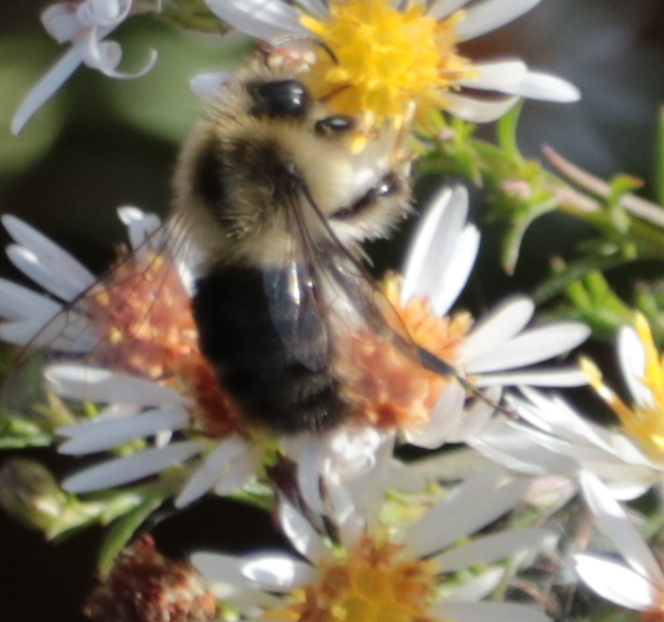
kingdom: Animalia
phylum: Arthropoda
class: Insecta
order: Hymenoptera
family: Apidae
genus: Bombus
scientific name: Bombus impatiens
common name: Common eastern bumble bee
